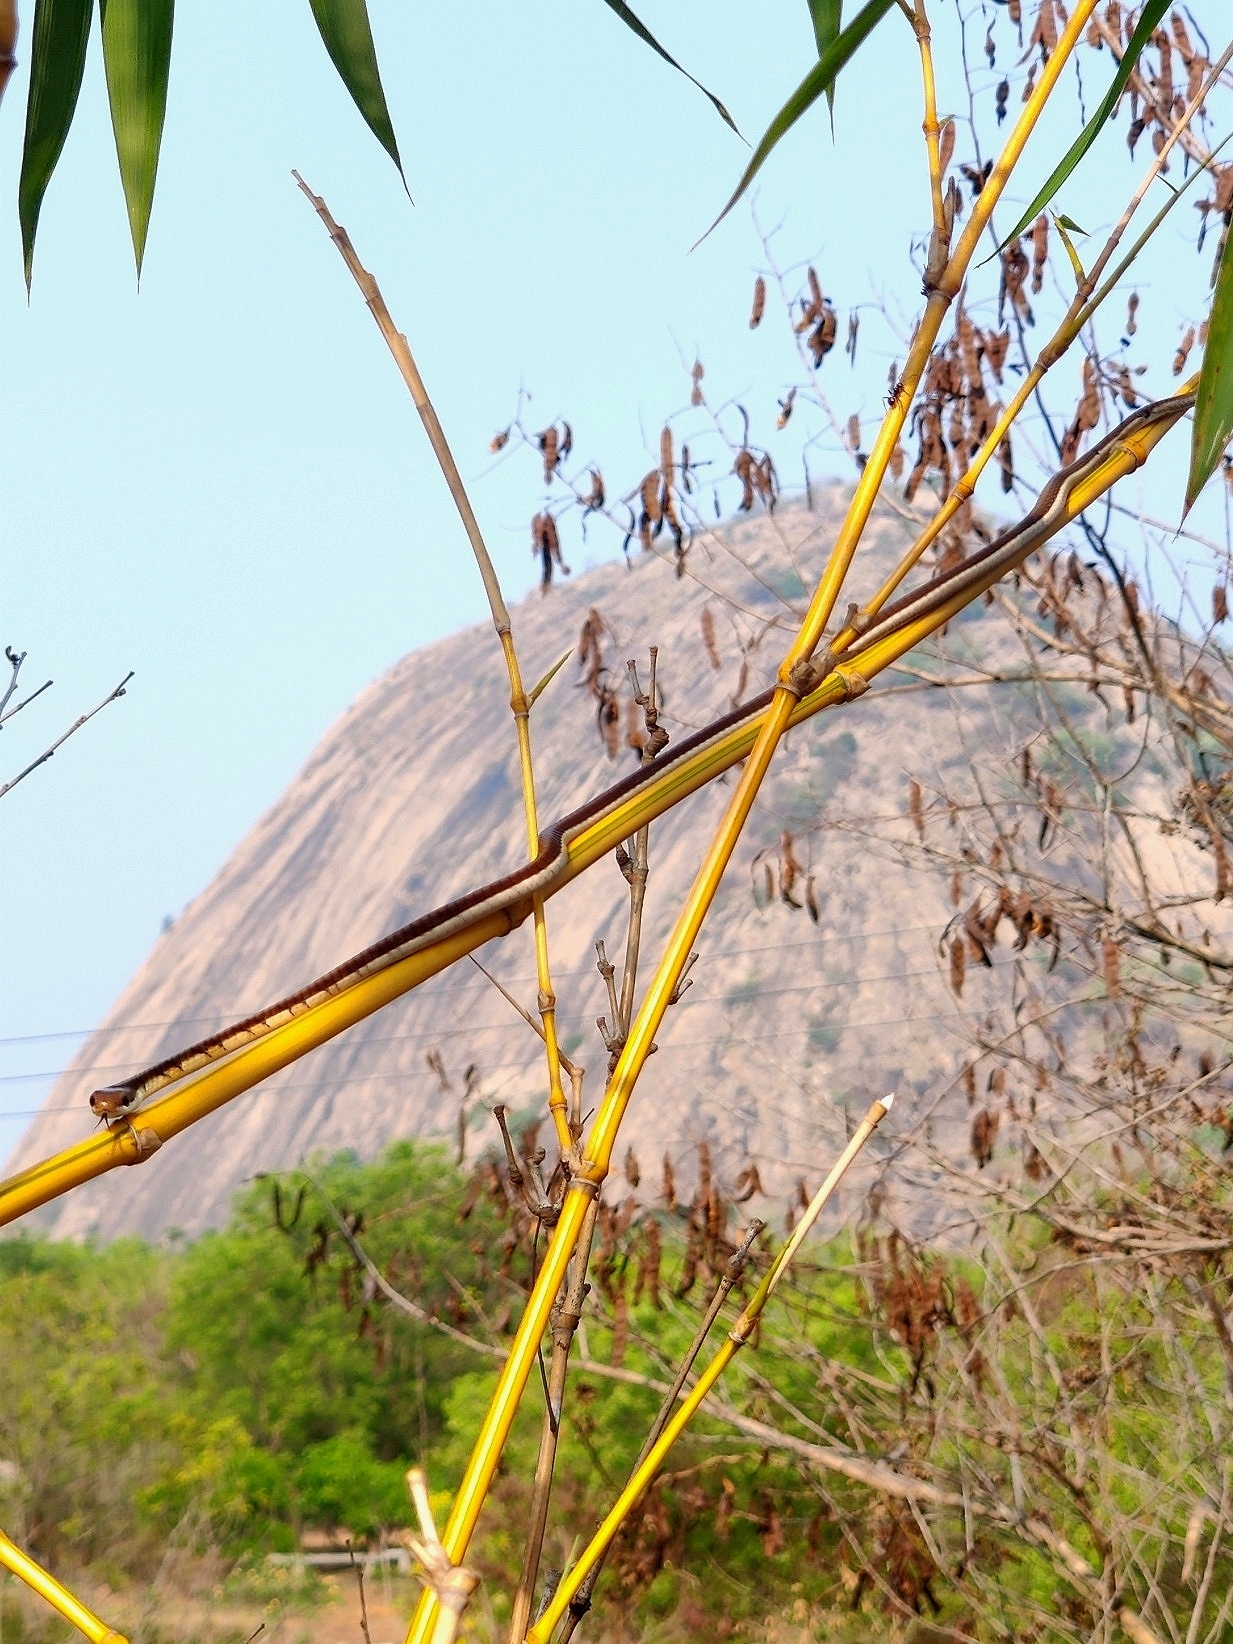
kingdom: Animalia
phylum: Chordata
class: Squamata
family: Colubridae
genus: Dendrelaphis
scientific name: Dendrelaphis tristis
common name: Daudin's bronzeback
